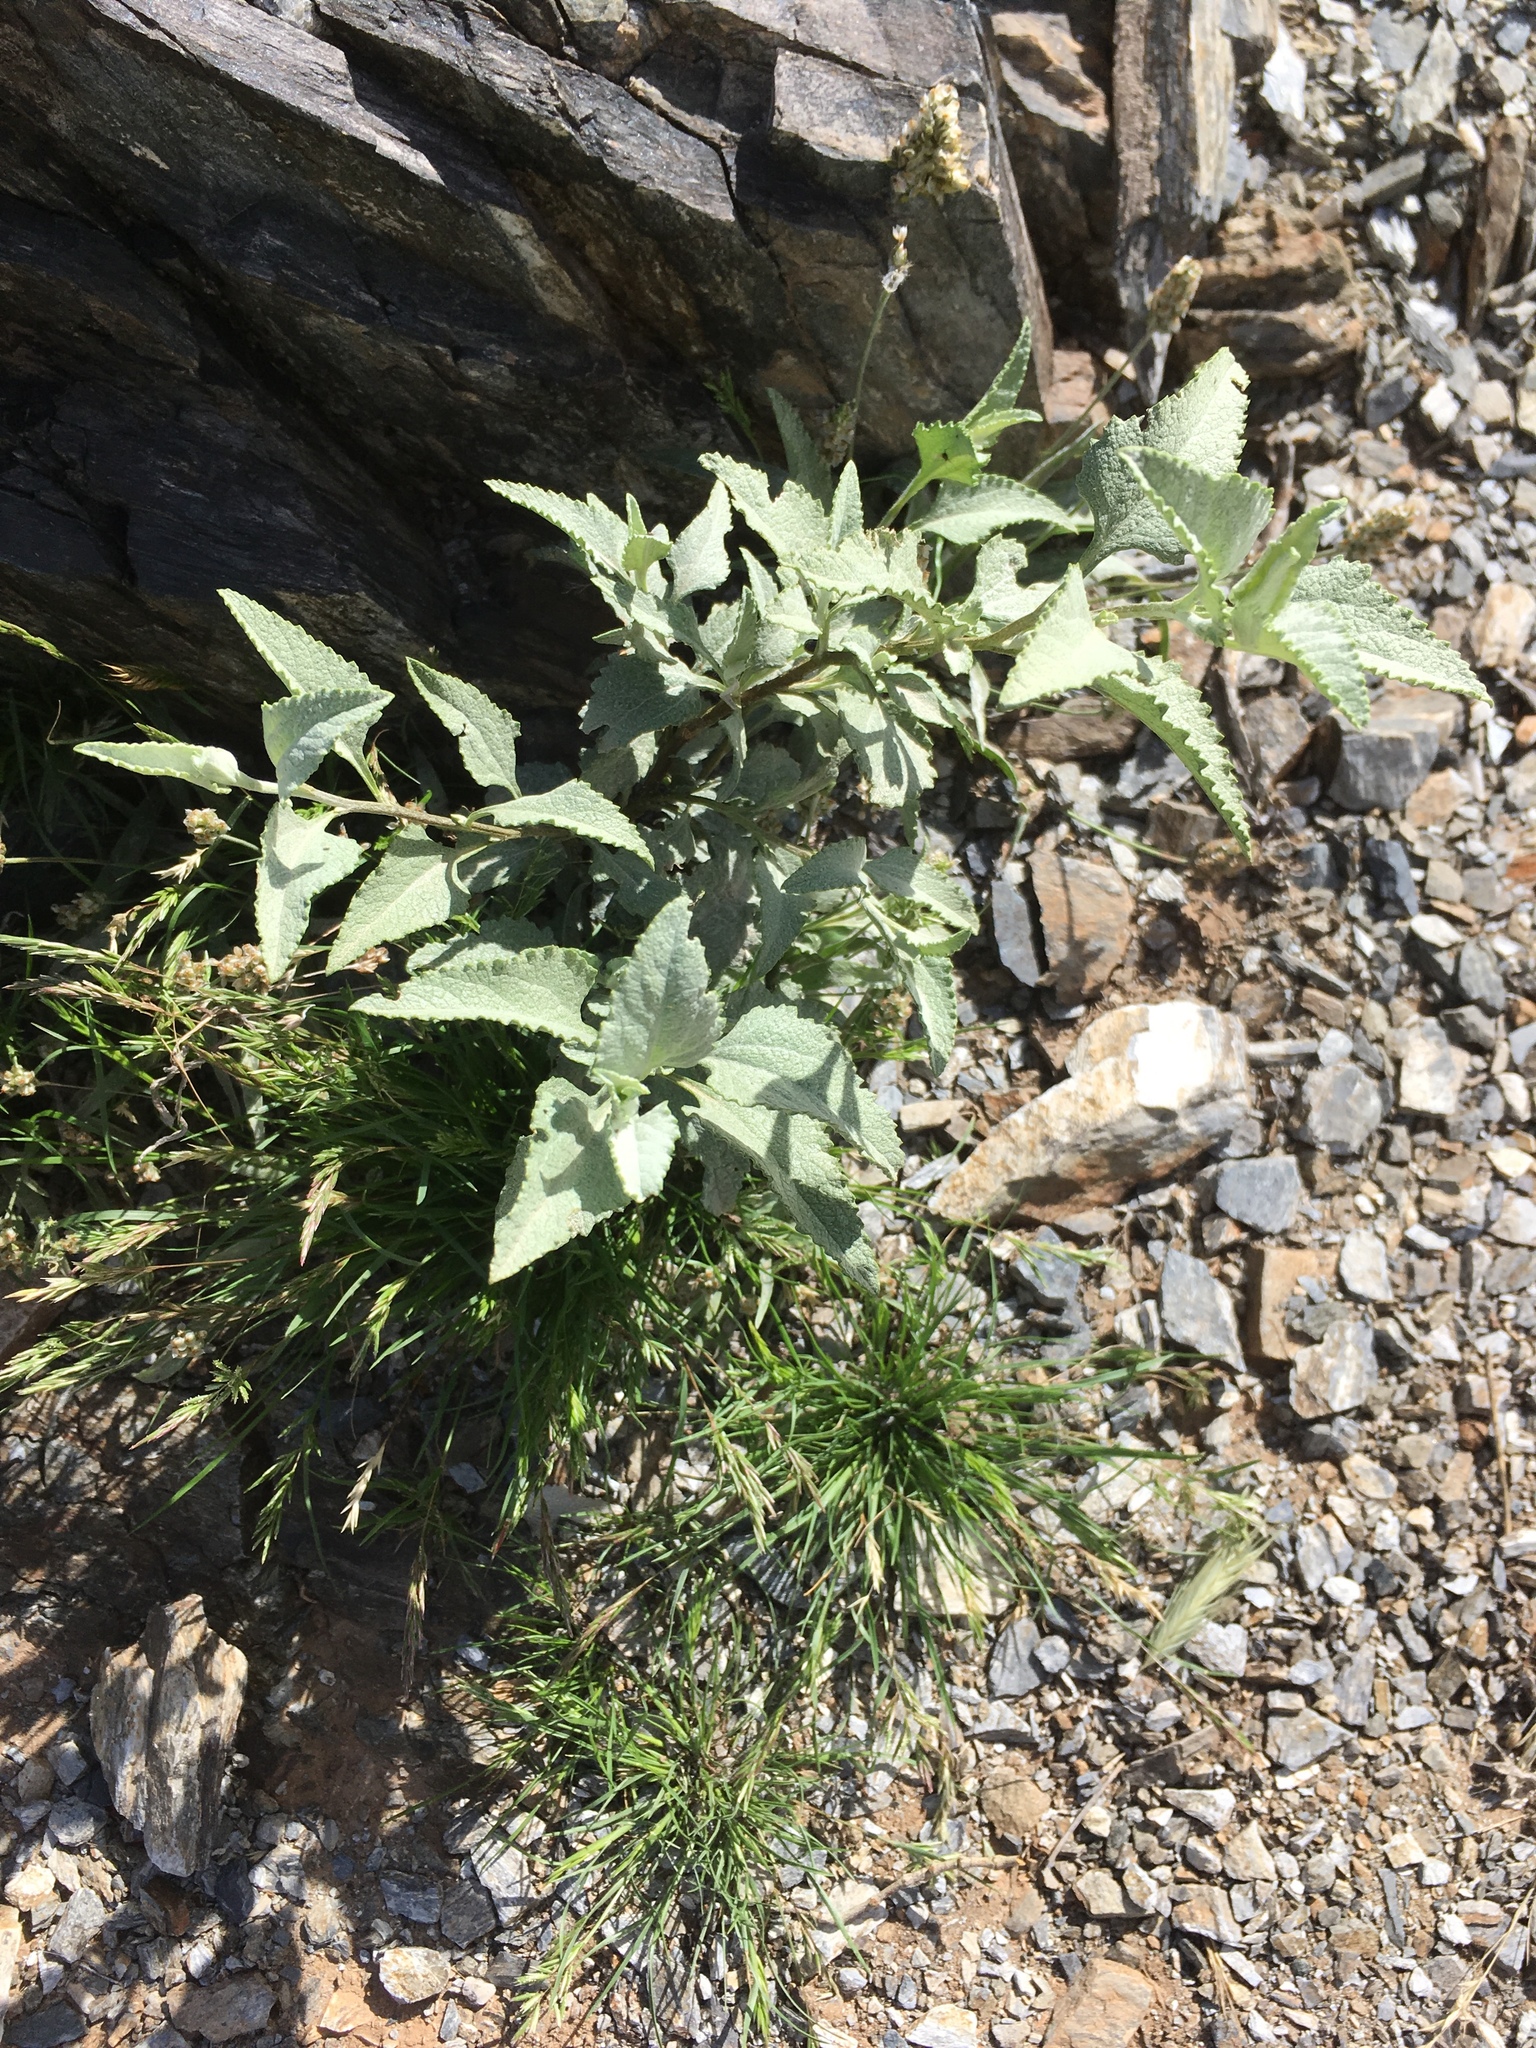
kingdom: Plantae
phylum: Tracheophyta
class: Magnoliopsida
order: Asterales
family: Asteraceae
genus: Ambrosia
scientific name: Ambrosia deltoidea
